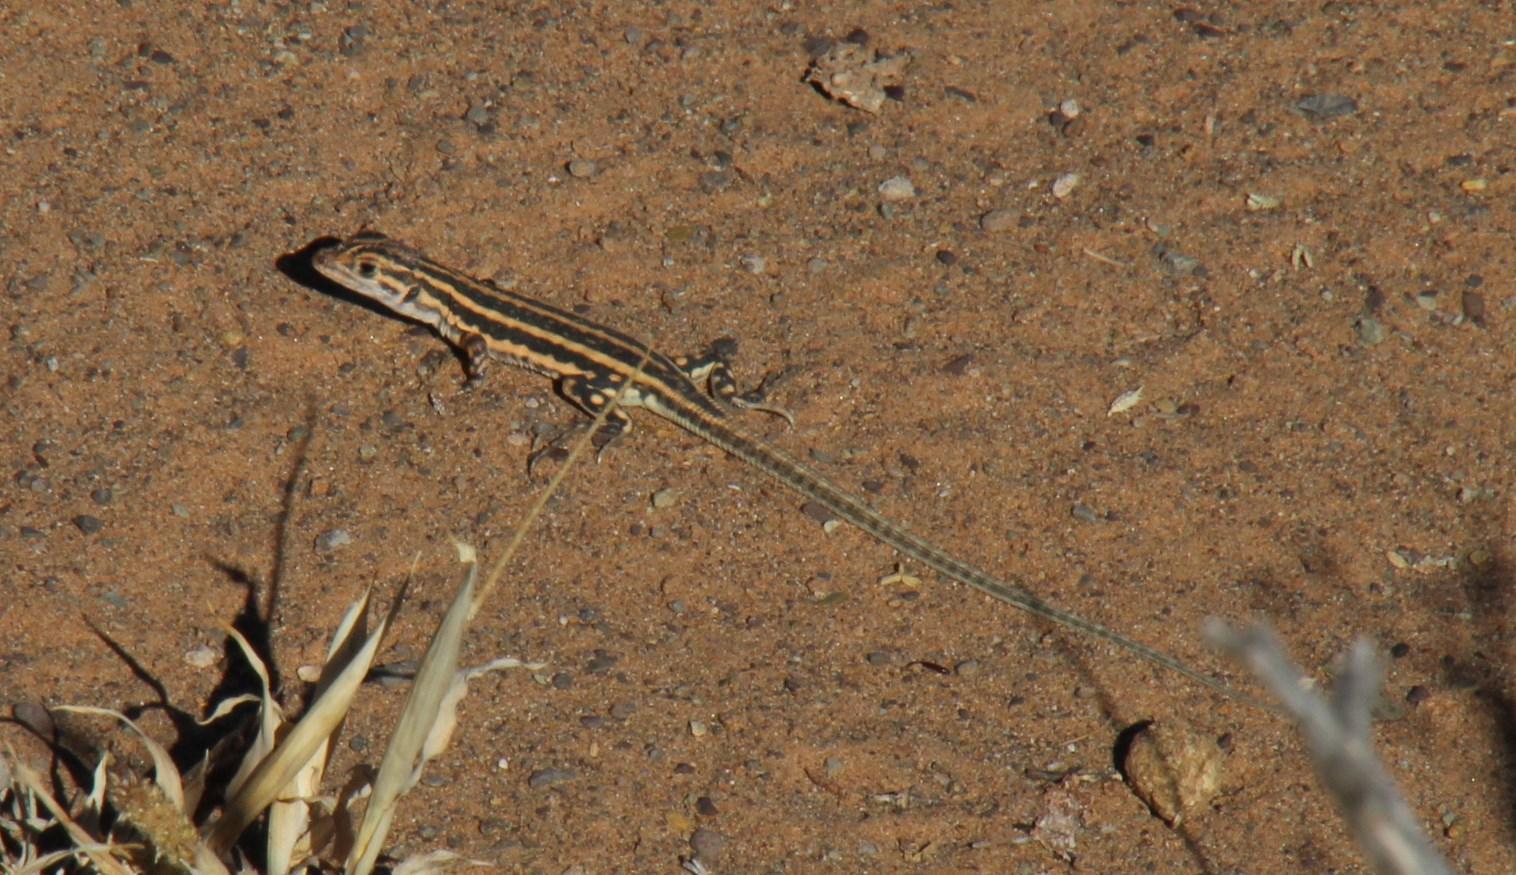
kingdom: Animalia
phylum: Chordata
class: Squamata
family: Lacertidae
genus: Meroles
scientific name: Meroles suborbitalis
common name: Spotted sand lizard
